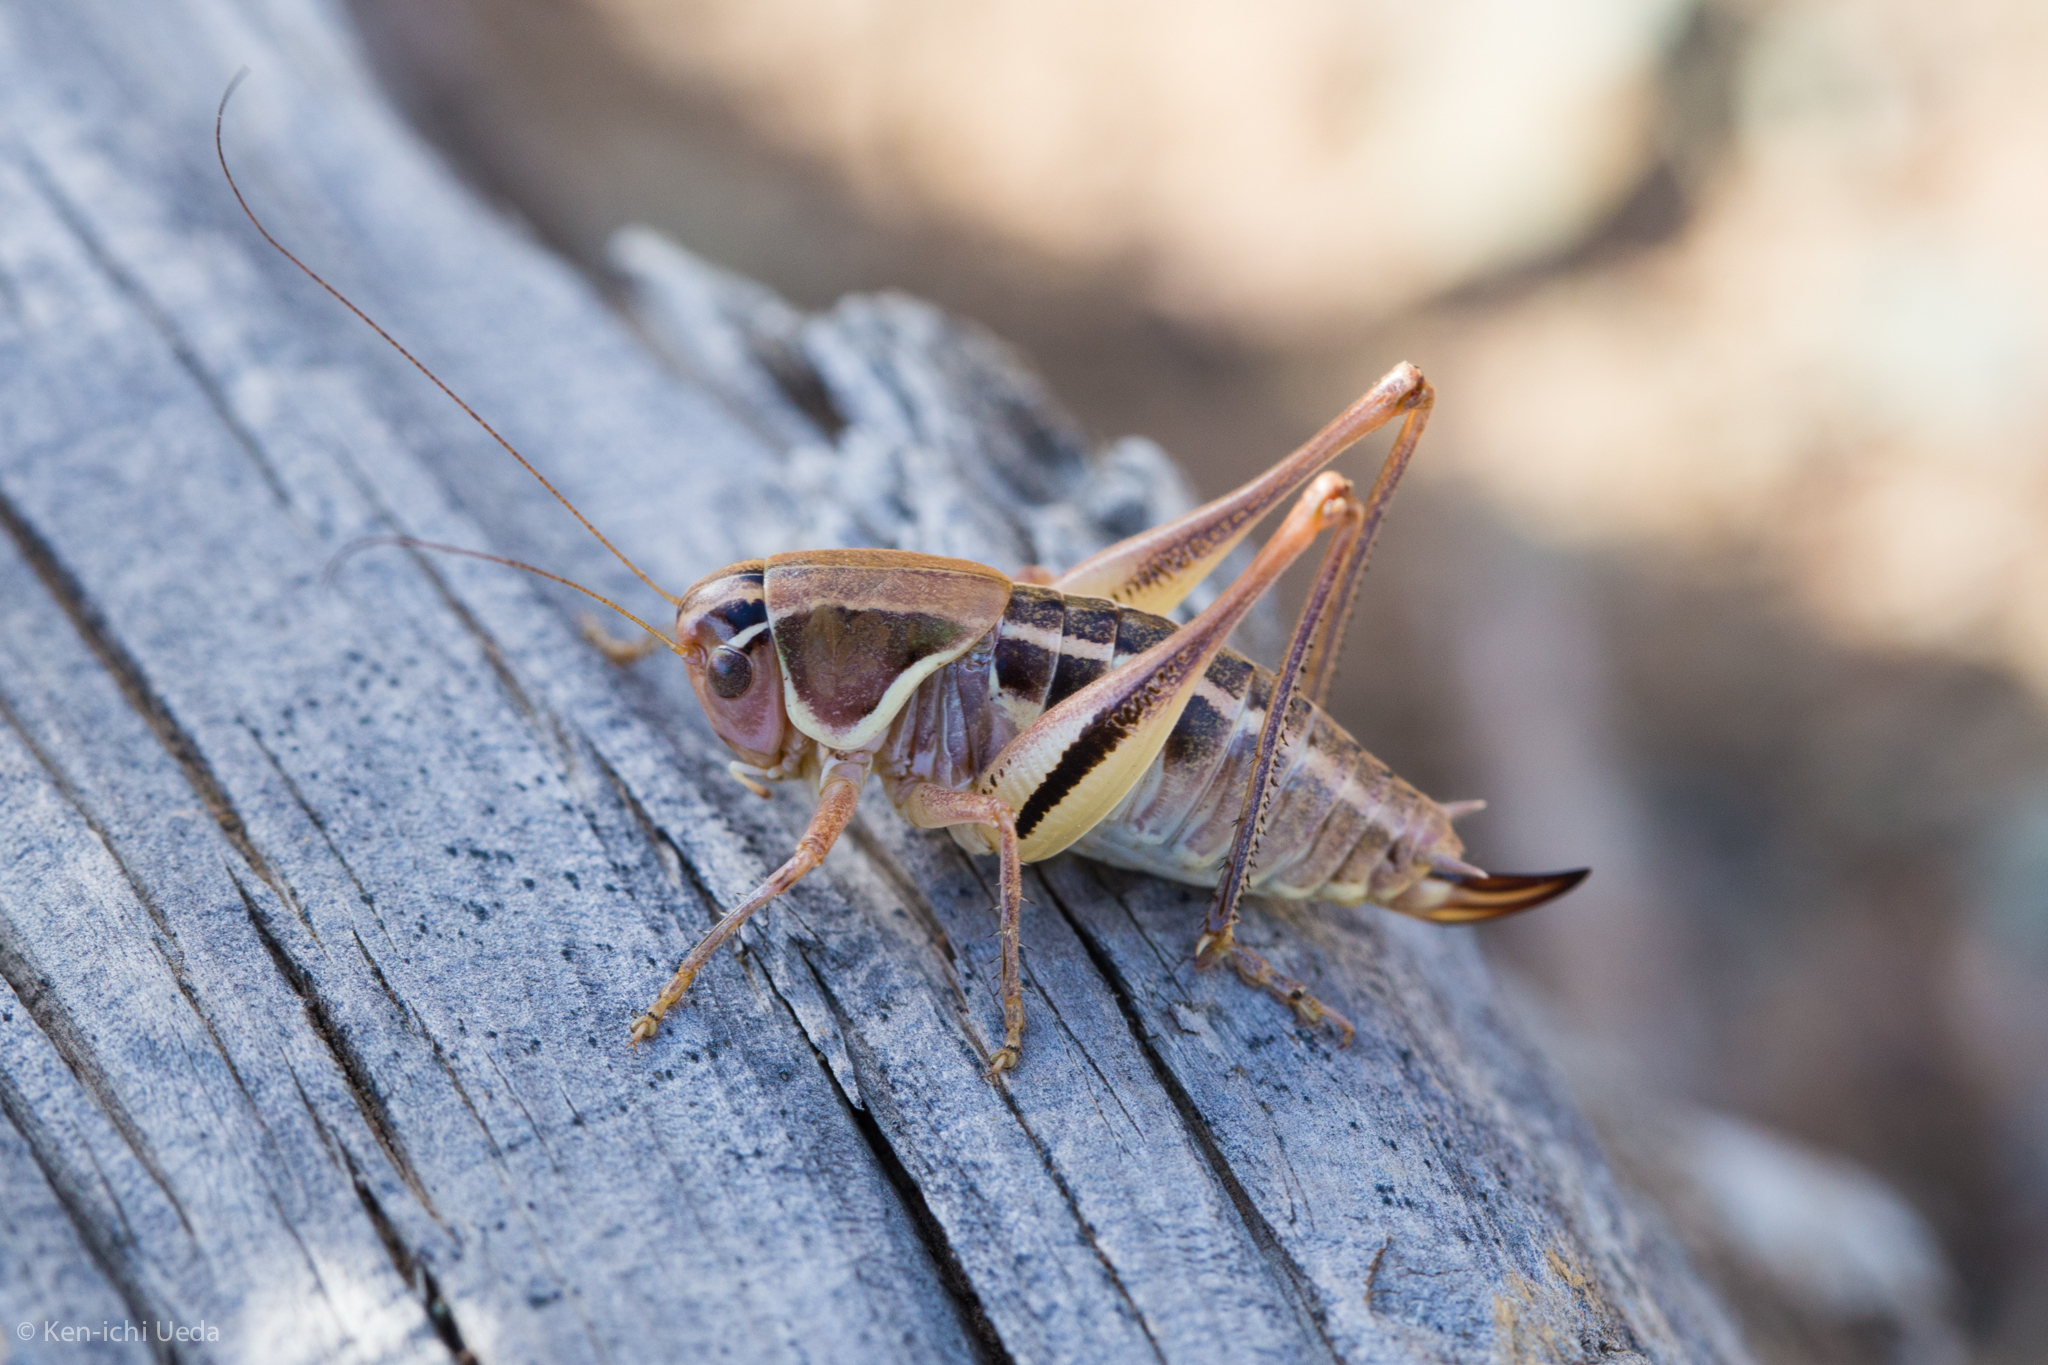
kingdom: Animalia
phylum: Arthropoda
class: Insecta
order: Orthoptera
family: Tettigoniidae
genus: Decticita
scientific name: Decticita brevicauda
